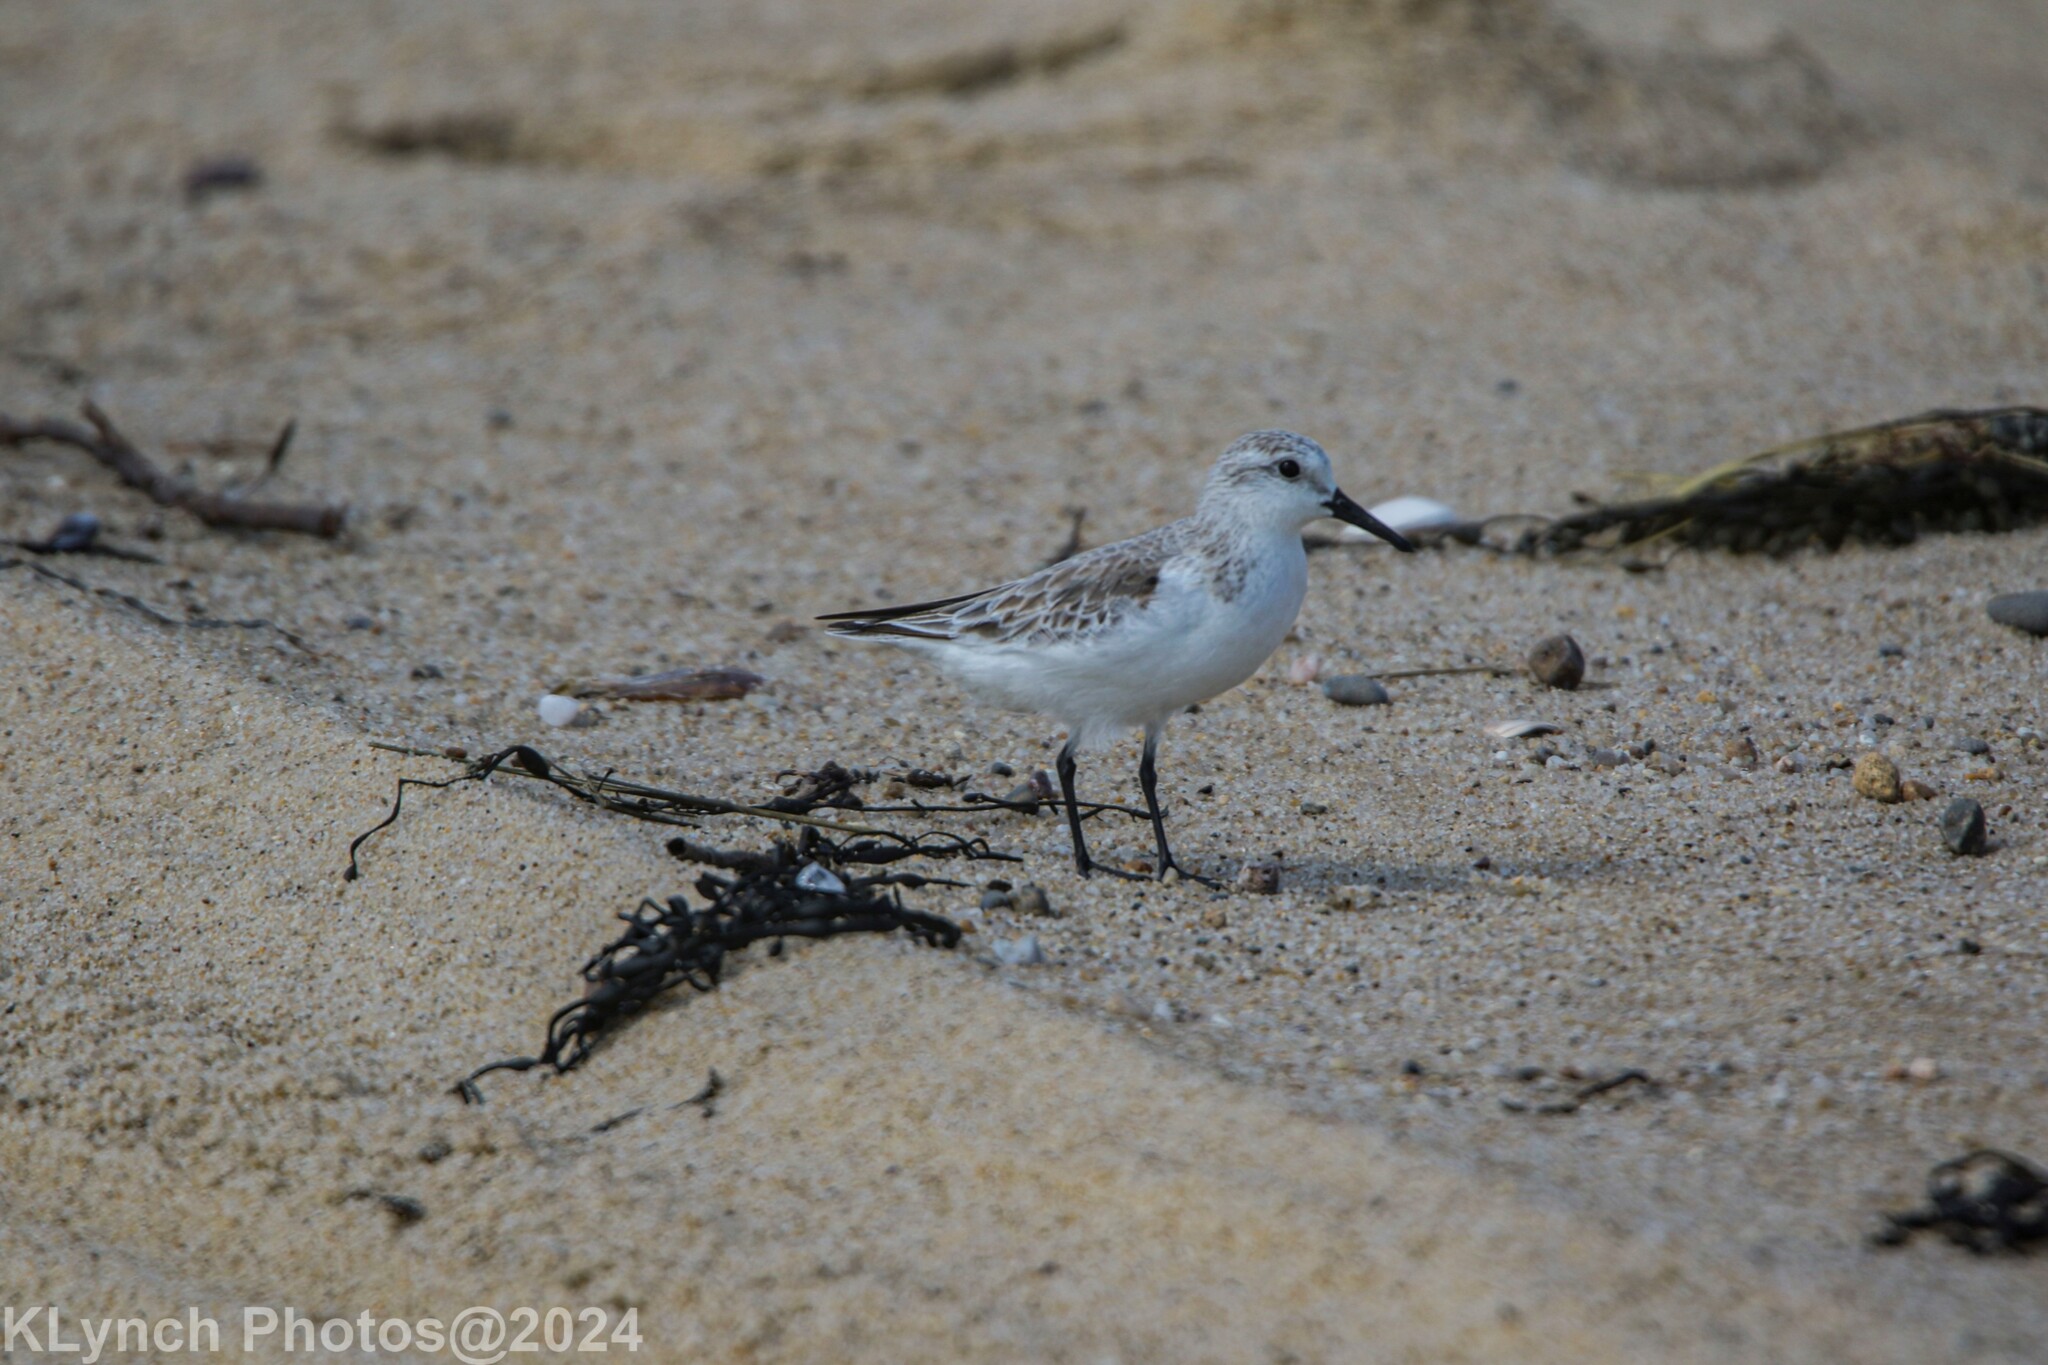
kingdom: Animalia
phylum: Chordata
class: Aves
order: Charadriiformes
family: Scolopacidae
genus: Calidris
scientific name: Calidris alba
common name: Sanderling
